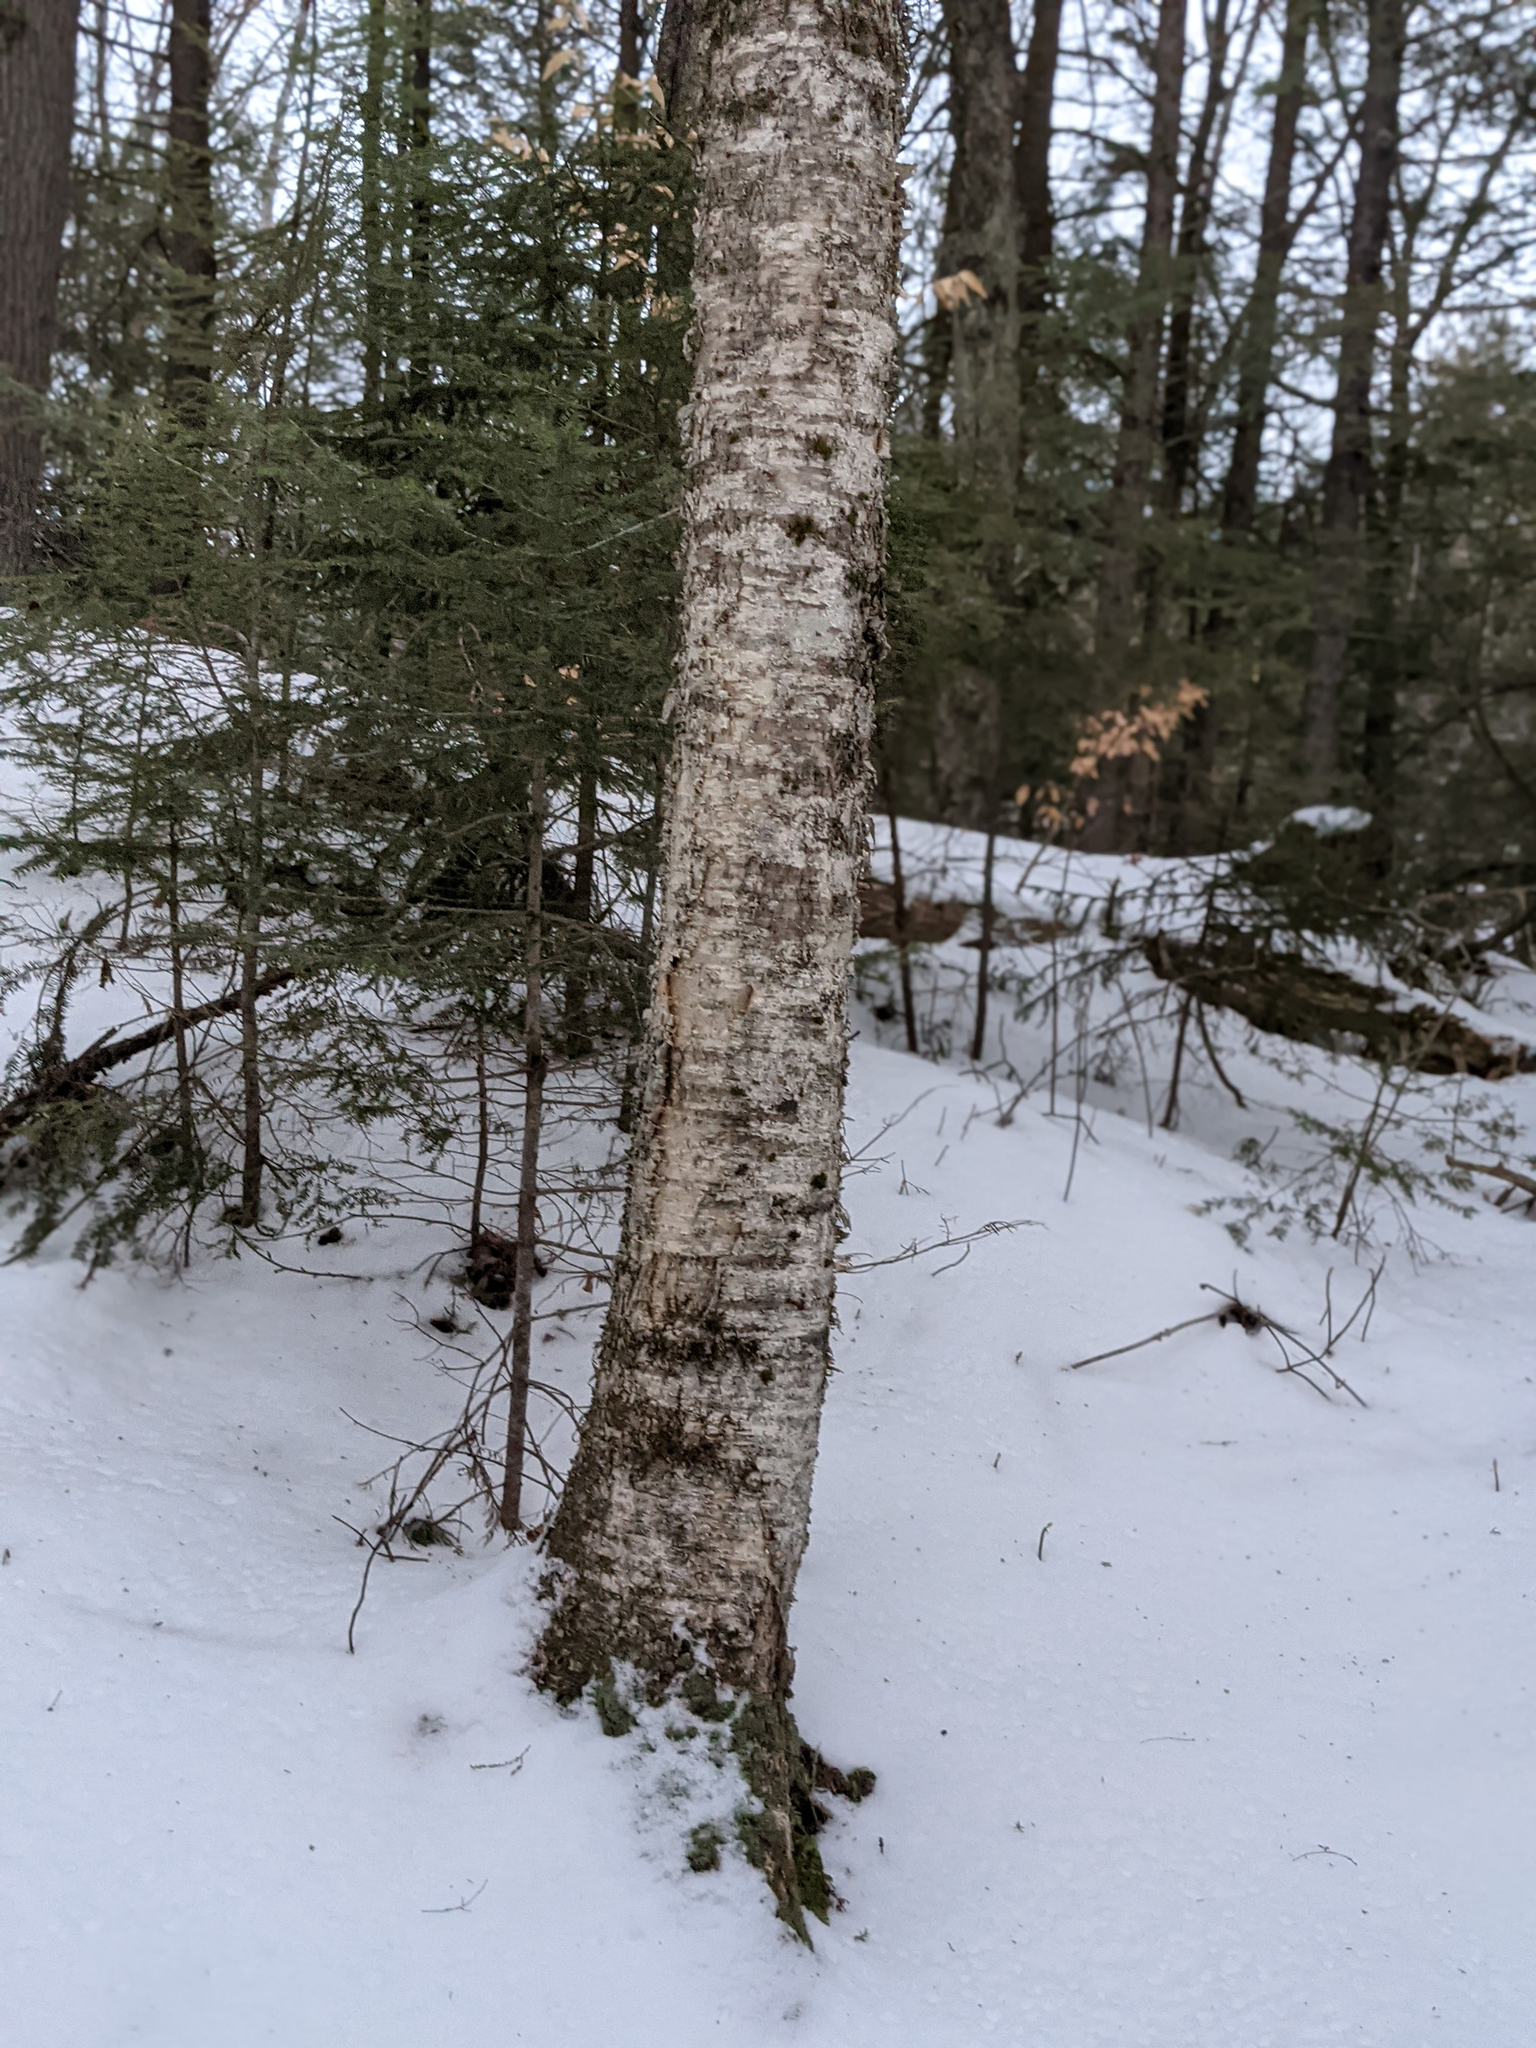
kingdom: Plantae
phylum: Tracheophyta
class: Magnoliopsida
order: Fagales
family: Betulaceae
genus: Betula
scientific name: Betula alleghaniensis
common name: Yellow birch
